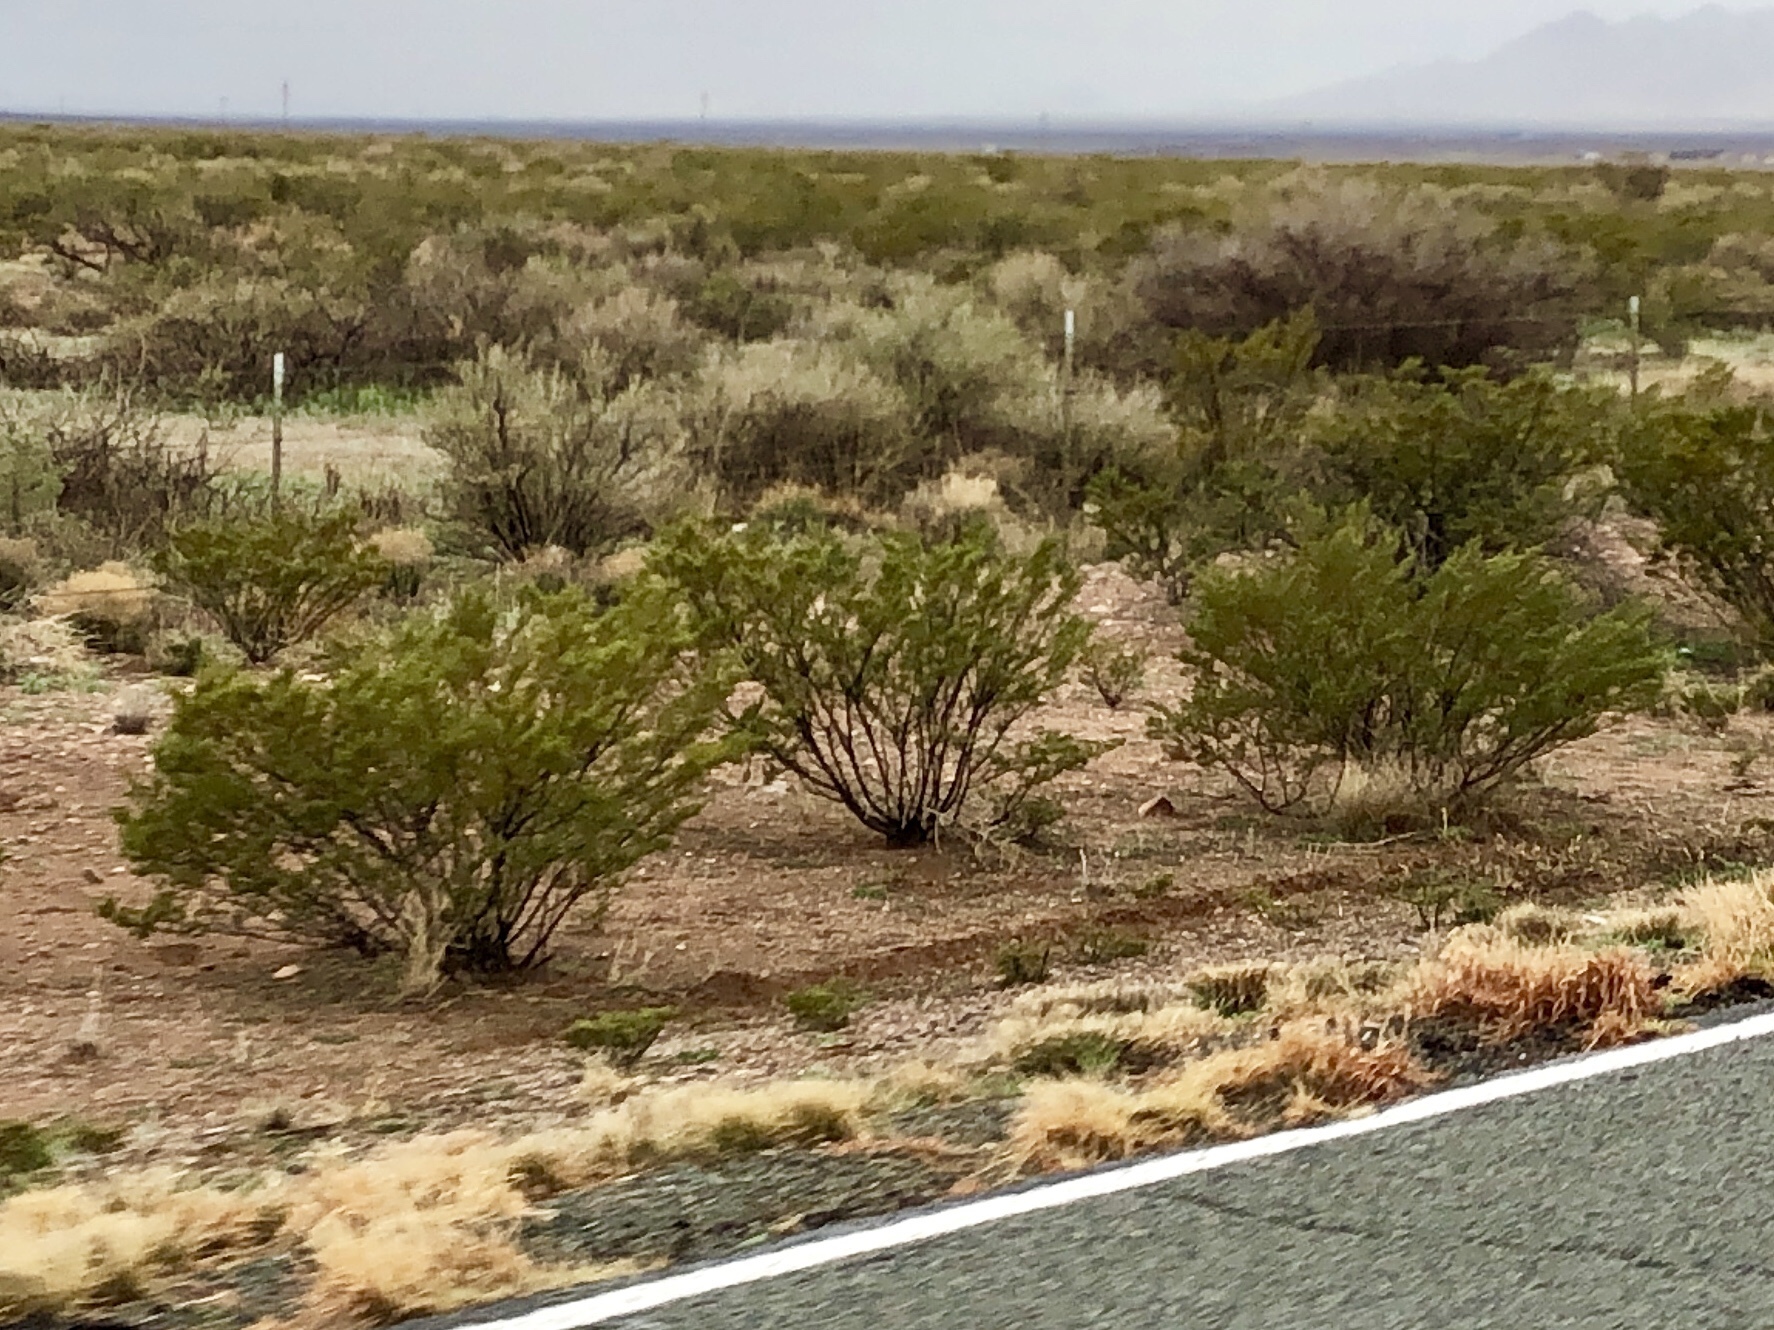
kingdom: Plantae
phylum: Tracheophyta
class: Magnoliopsida
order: Zygophyllales
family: Zygophyllaceae
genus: Larrea
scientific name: Larrea tridentata
